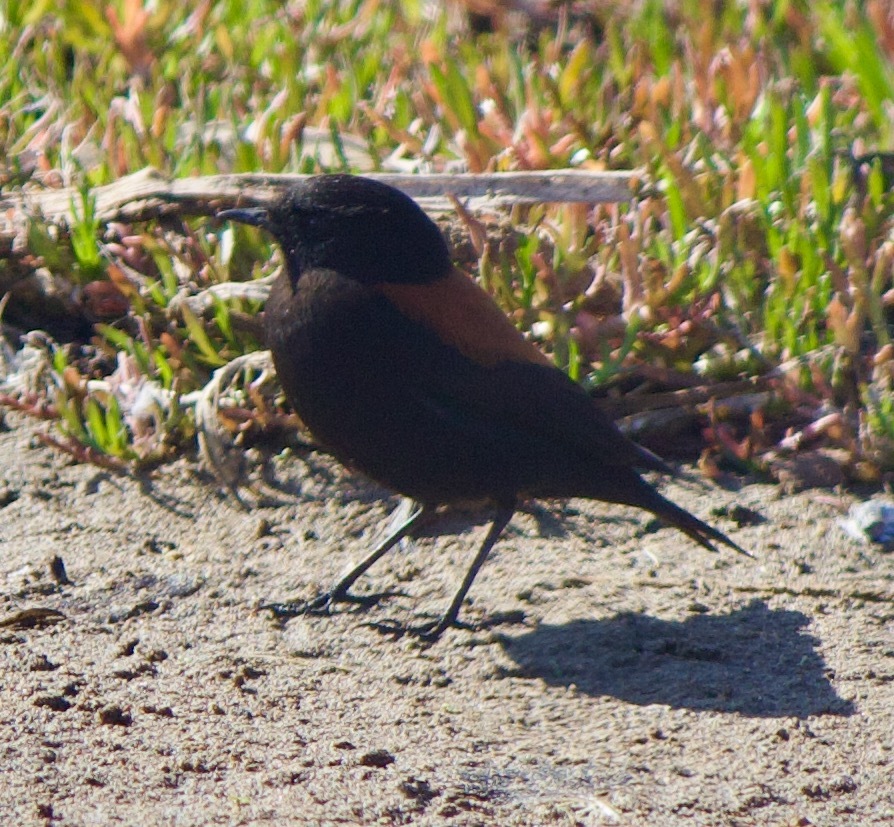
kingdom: Animalia
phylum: Chordata
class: Aves
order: Passeriformes
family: Tyrannidae
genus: Lessonia
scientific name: Lessonia rufa
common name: Austral negrito
